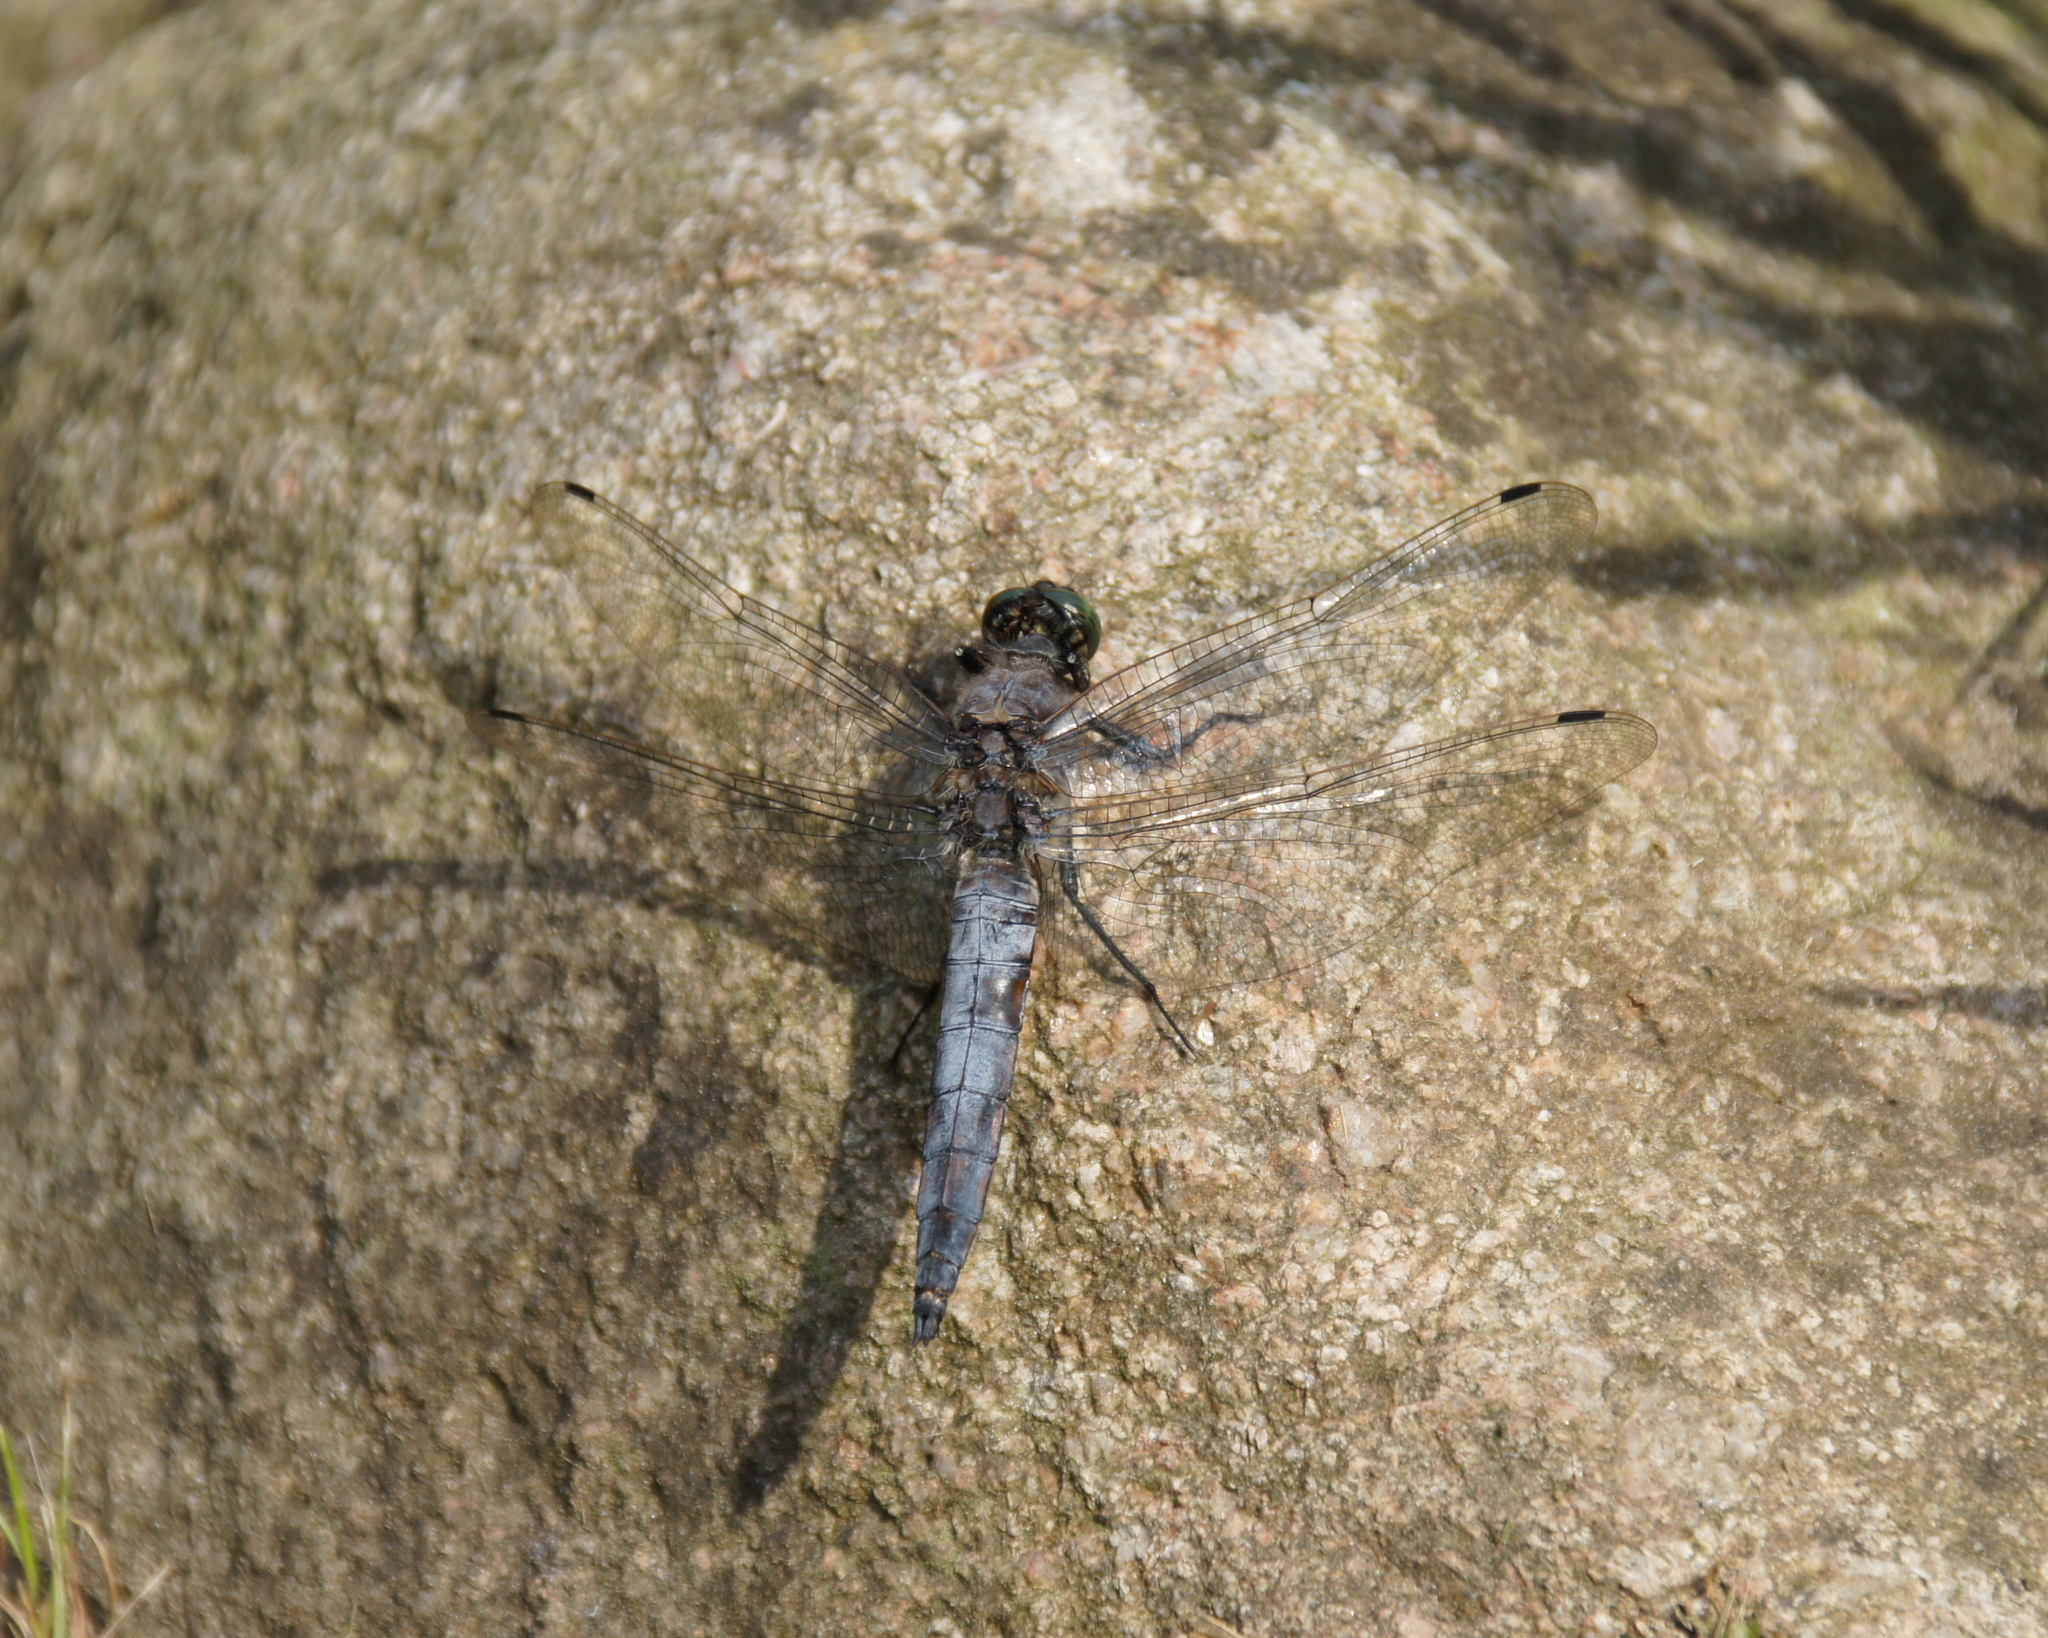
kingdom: Animalia
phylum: Arthropoda
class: Insecta
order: Odonata
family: Libellulidae
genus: Orthetrum
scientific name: Orthetrum cancellatum
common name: Black-tailed skimmer
